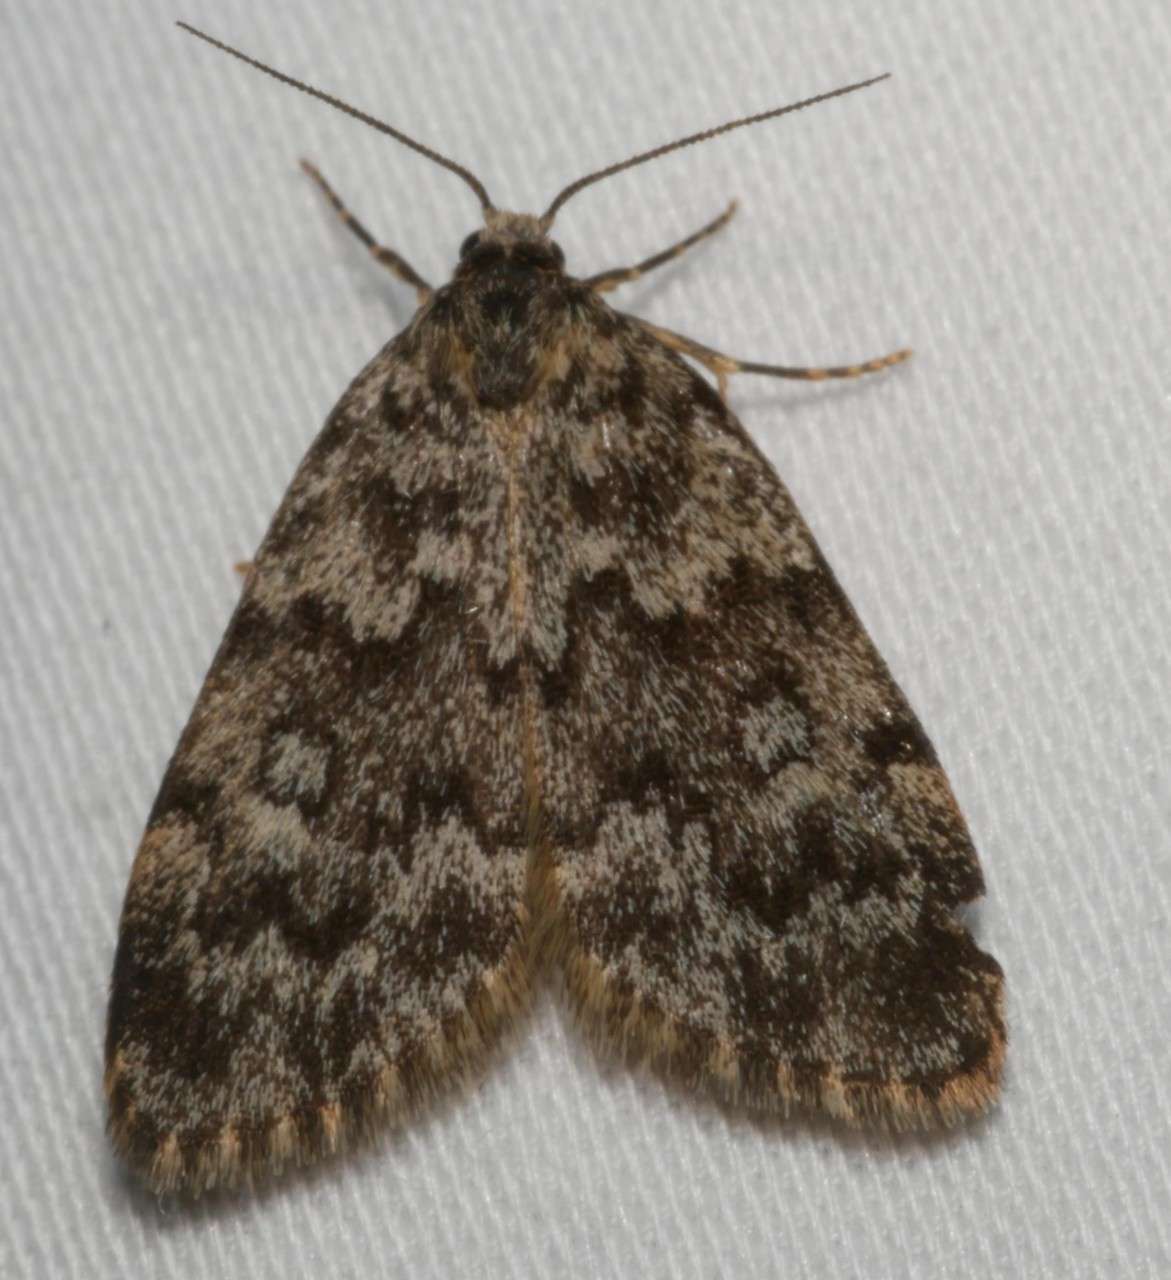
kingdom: Animalia
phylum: Arthropoda
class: Insecta
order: Lepidoptera
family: Erebidae
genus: Halone
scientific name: Halone consolatrix
